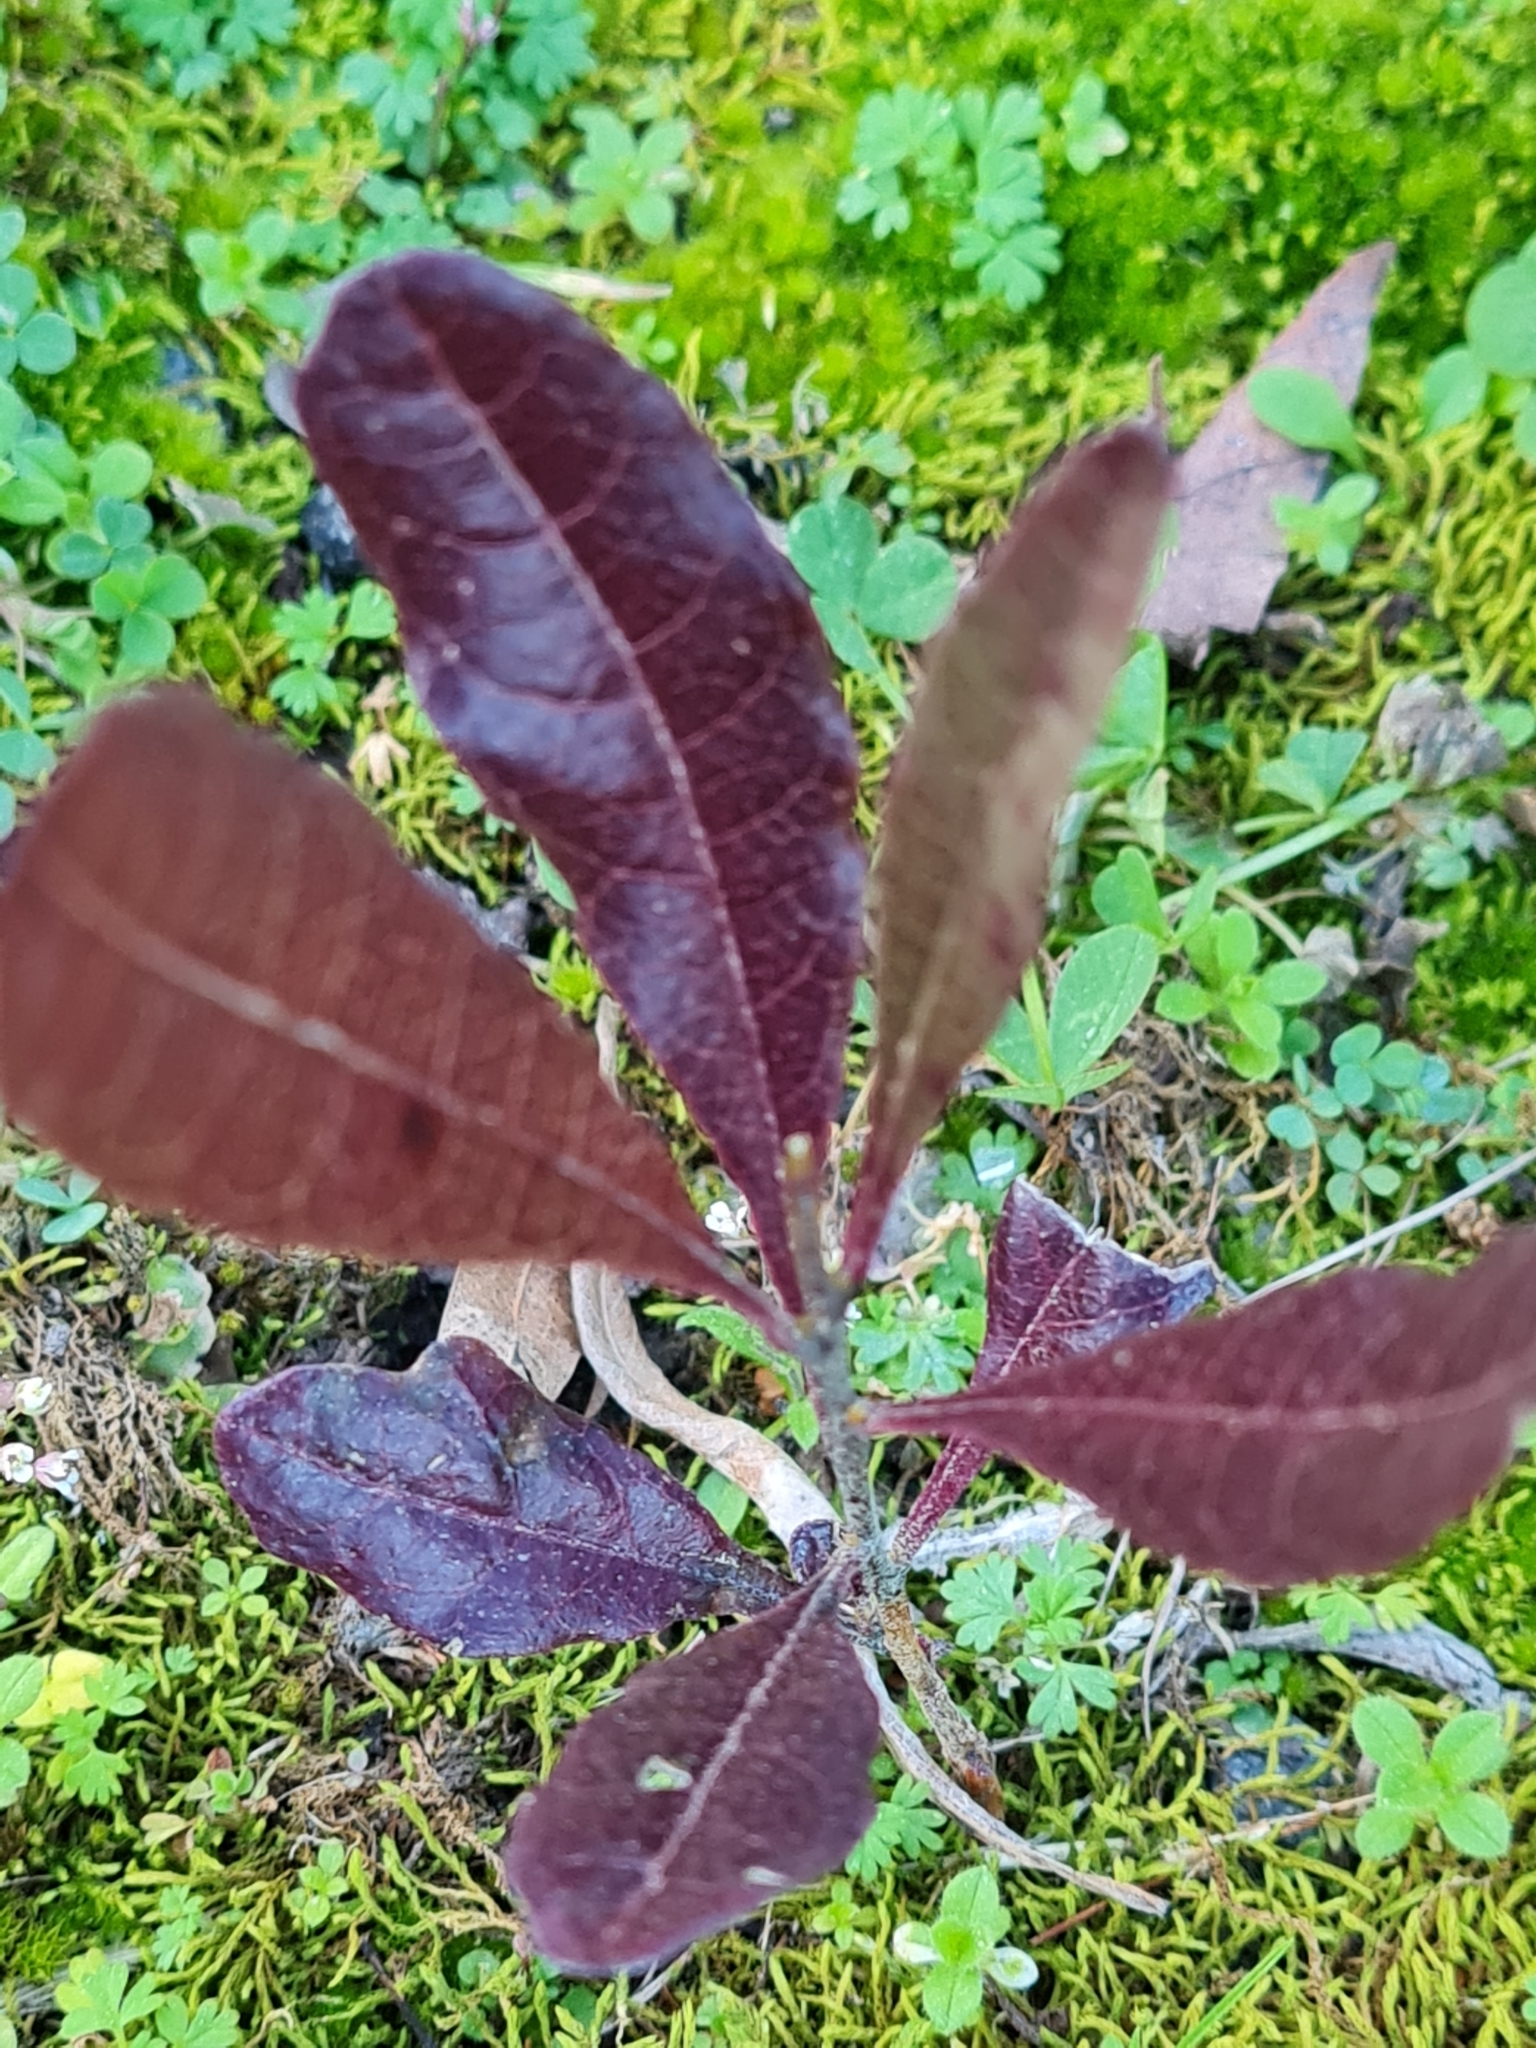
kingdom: Plantae
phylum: Tracheophyta
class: Magnoliopsida
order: Sapindales
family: Sapindaceae
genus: Dodonaea
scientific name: Dodonaea viscosa
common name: Hopbush
